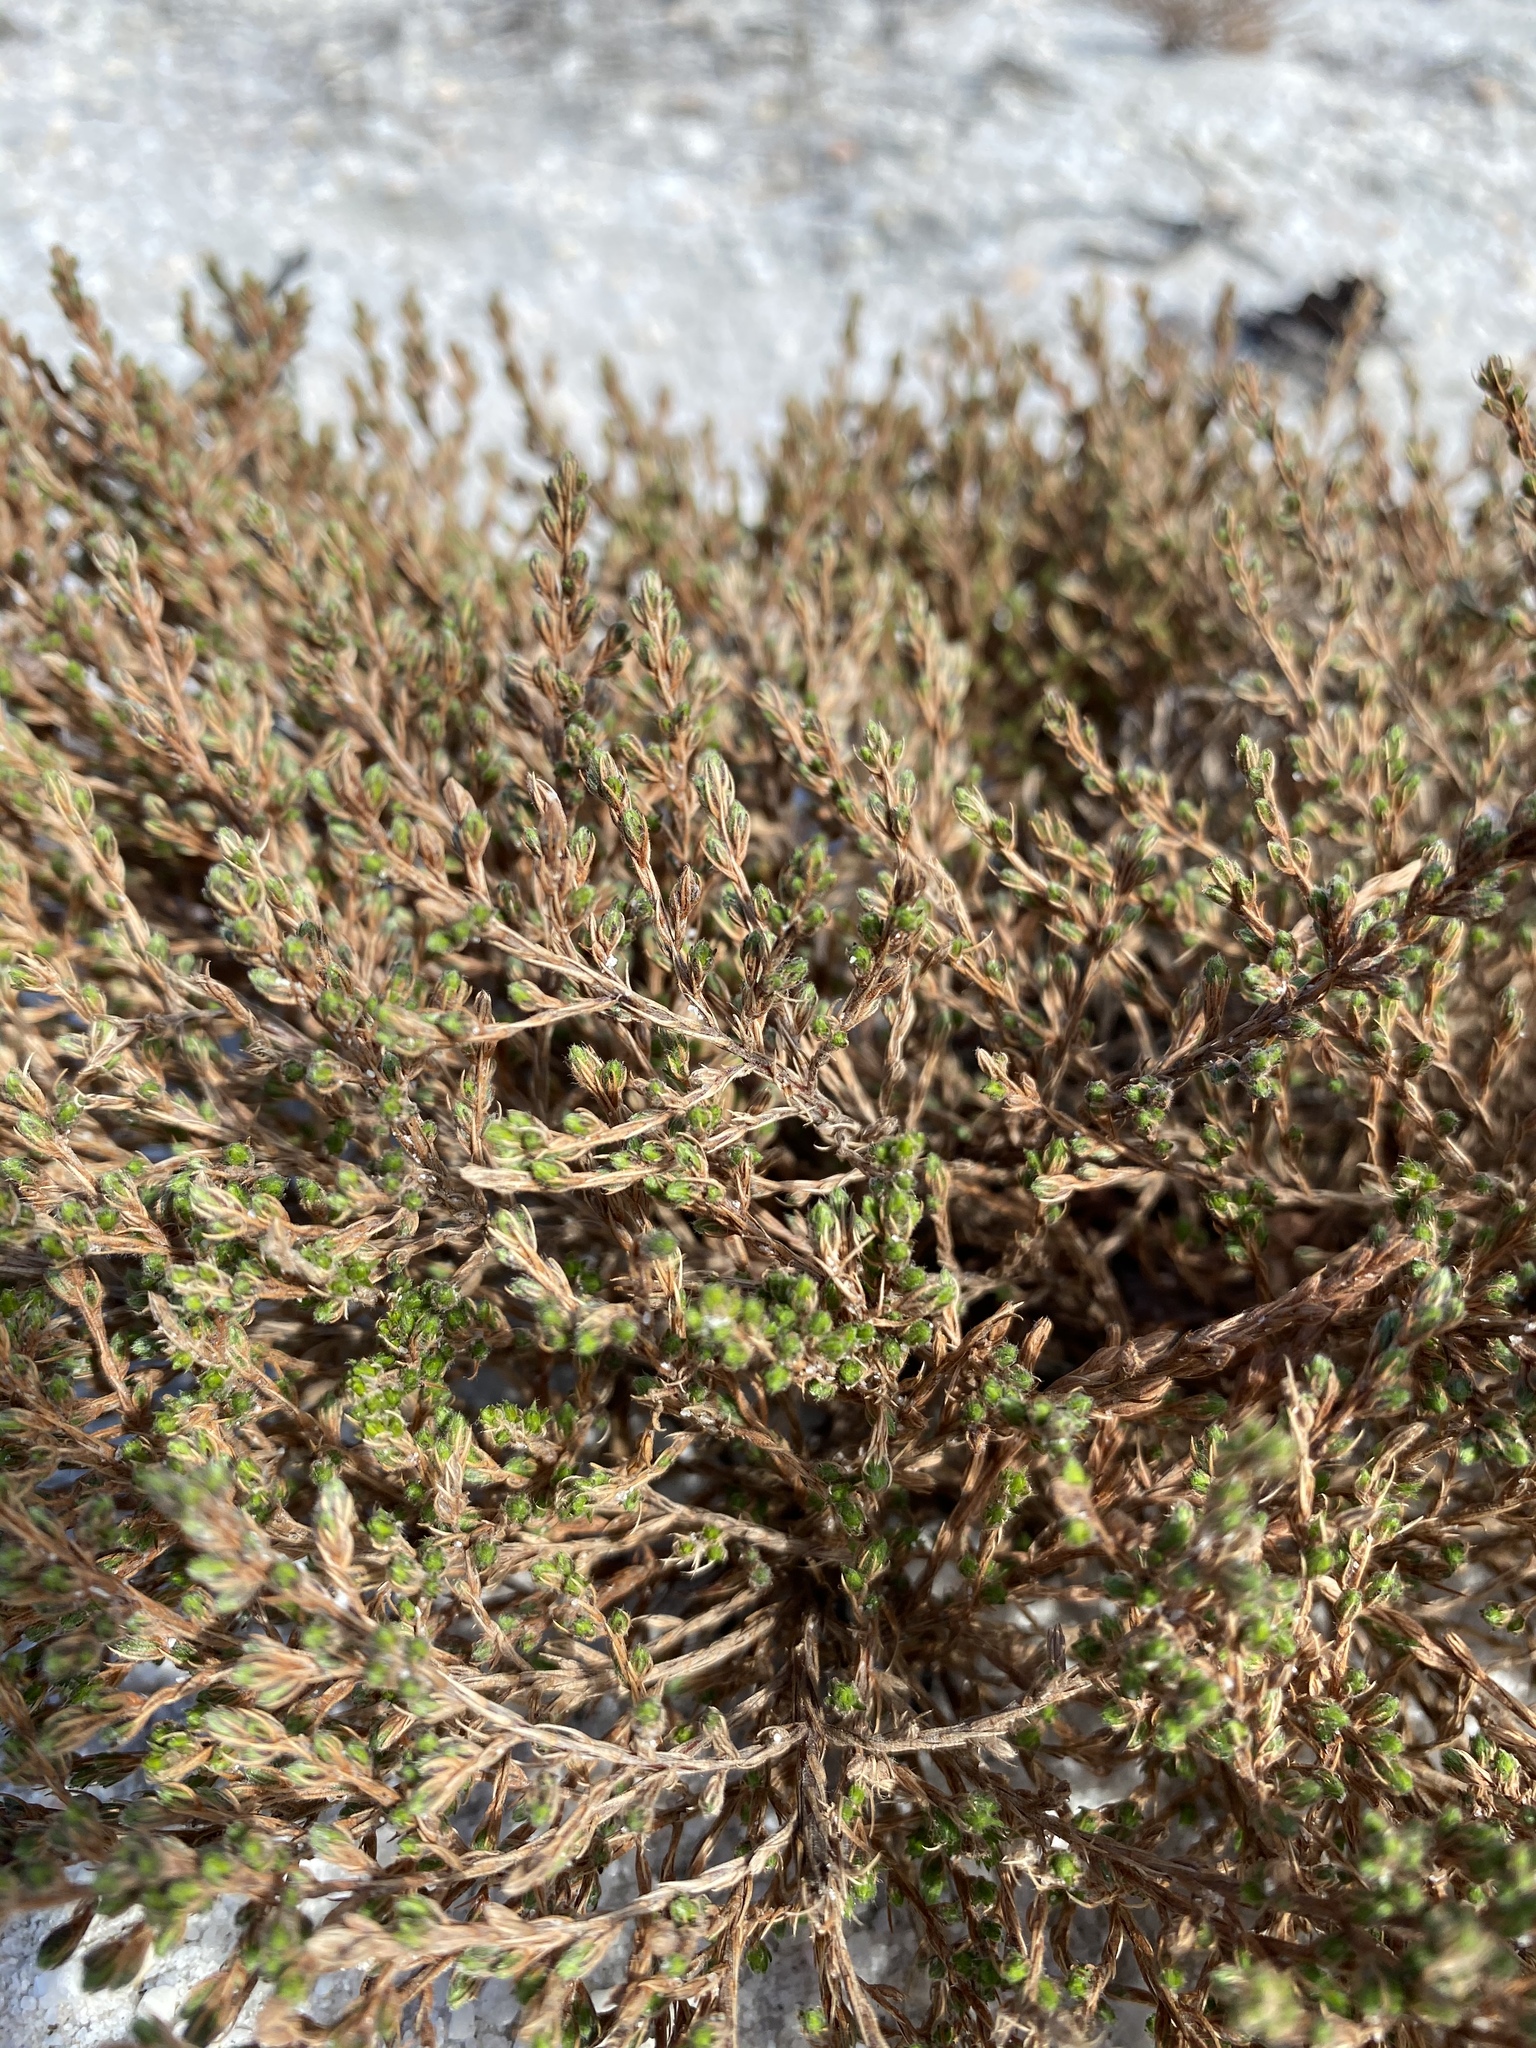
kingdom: Plantae
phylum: Tracheophyta
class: Magnoliopsida
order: Malvales
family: Cistaceae
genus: Hudsonia
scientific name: Hudsonia ericoides
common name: Golden-heather
